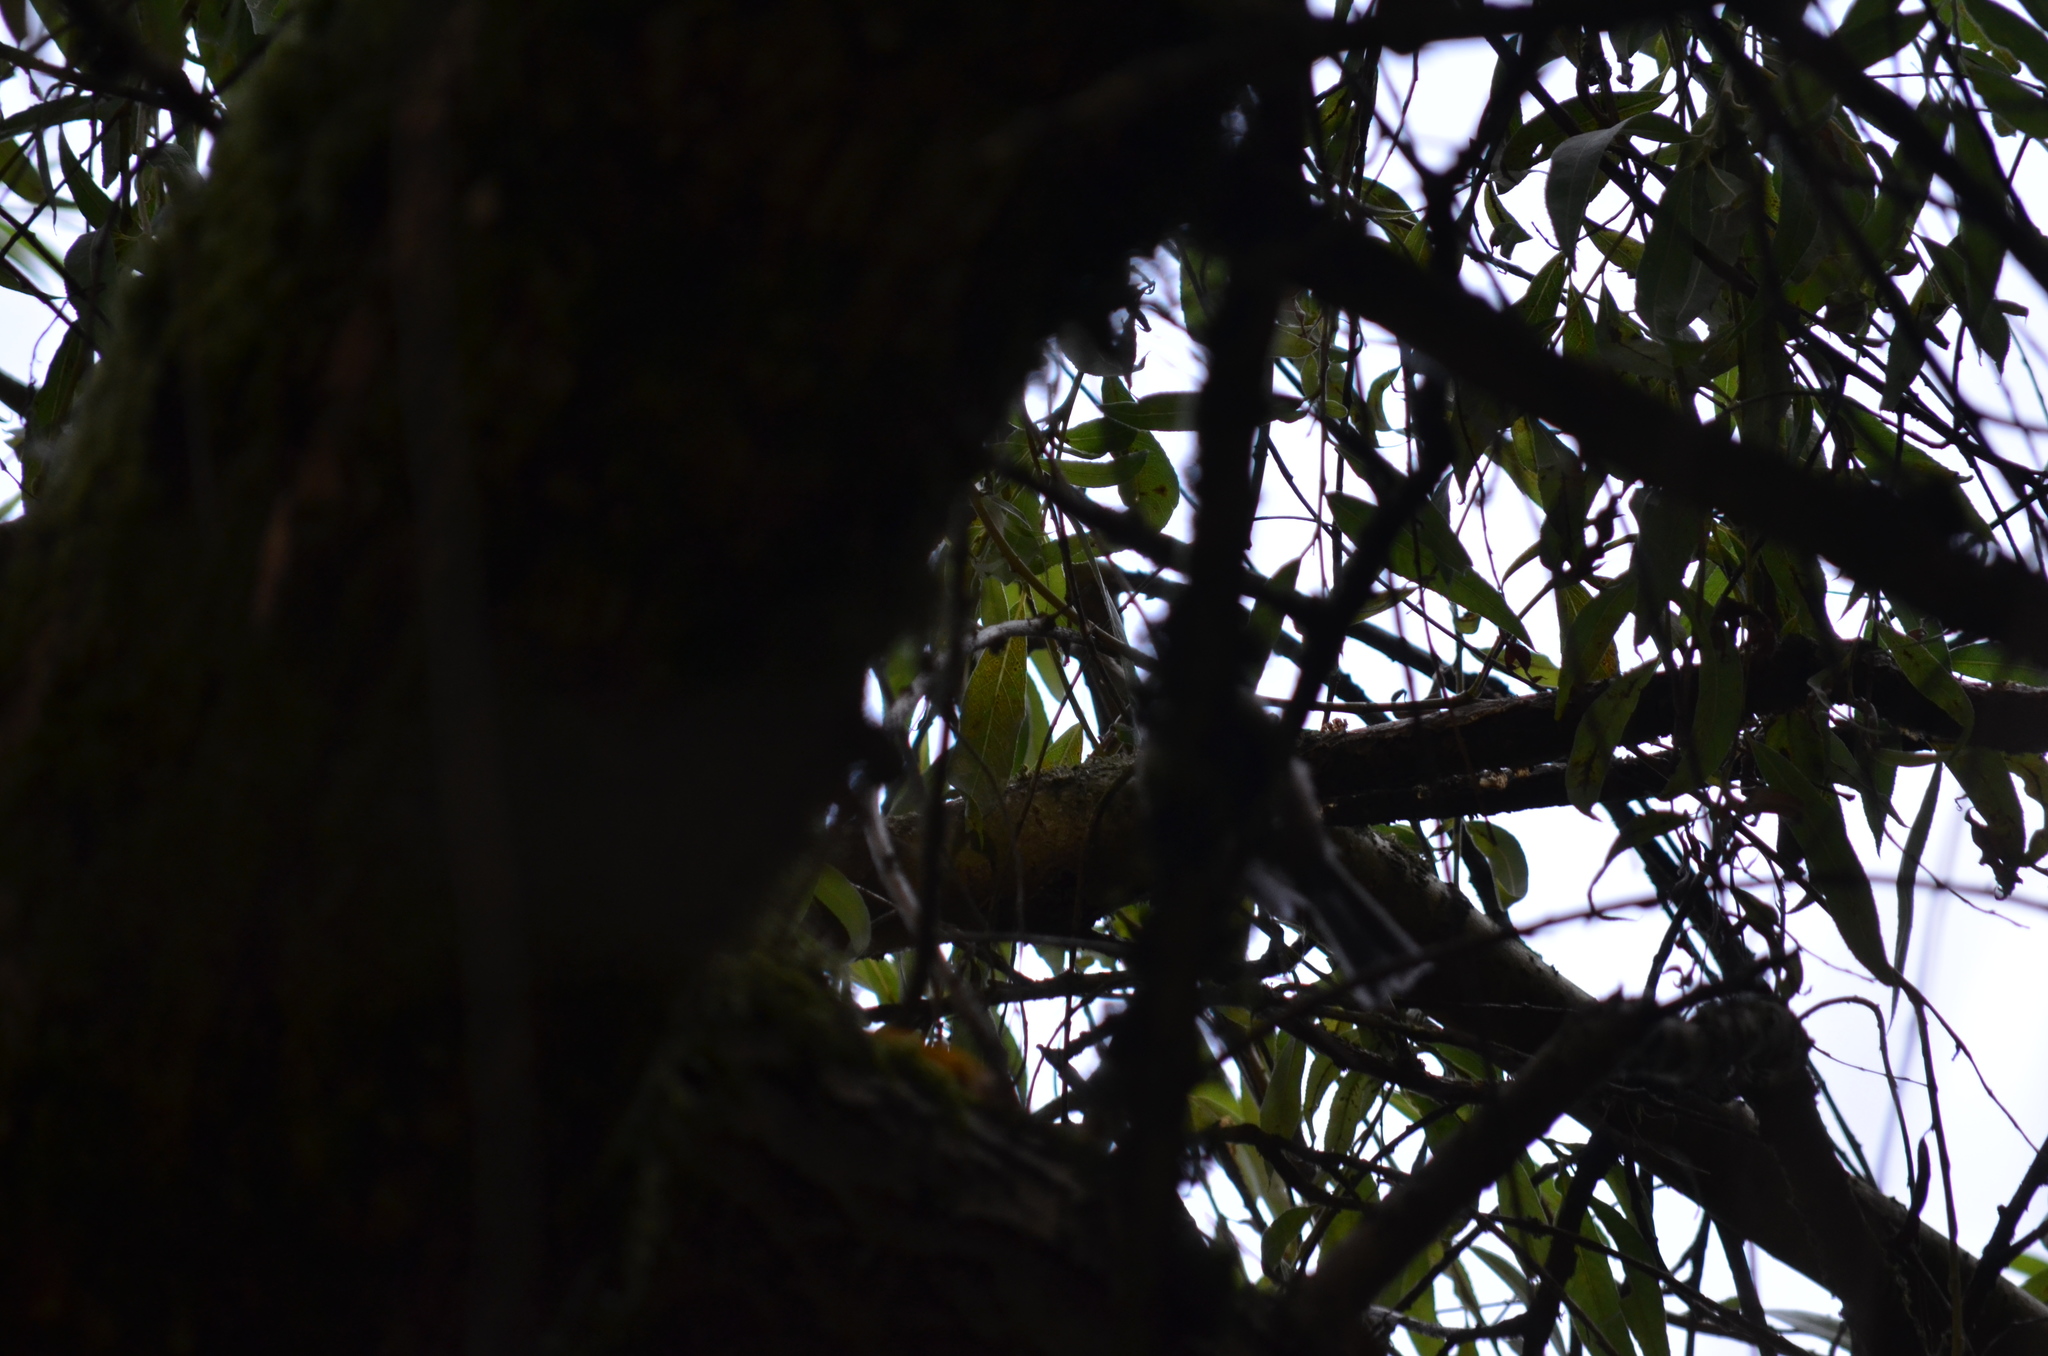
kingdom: Animalia
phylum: Chordata
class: Aves
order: Passeriformes
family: Paridae
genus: Poecile
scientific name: Poecile atricapillus
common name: Black-capped chickadee
